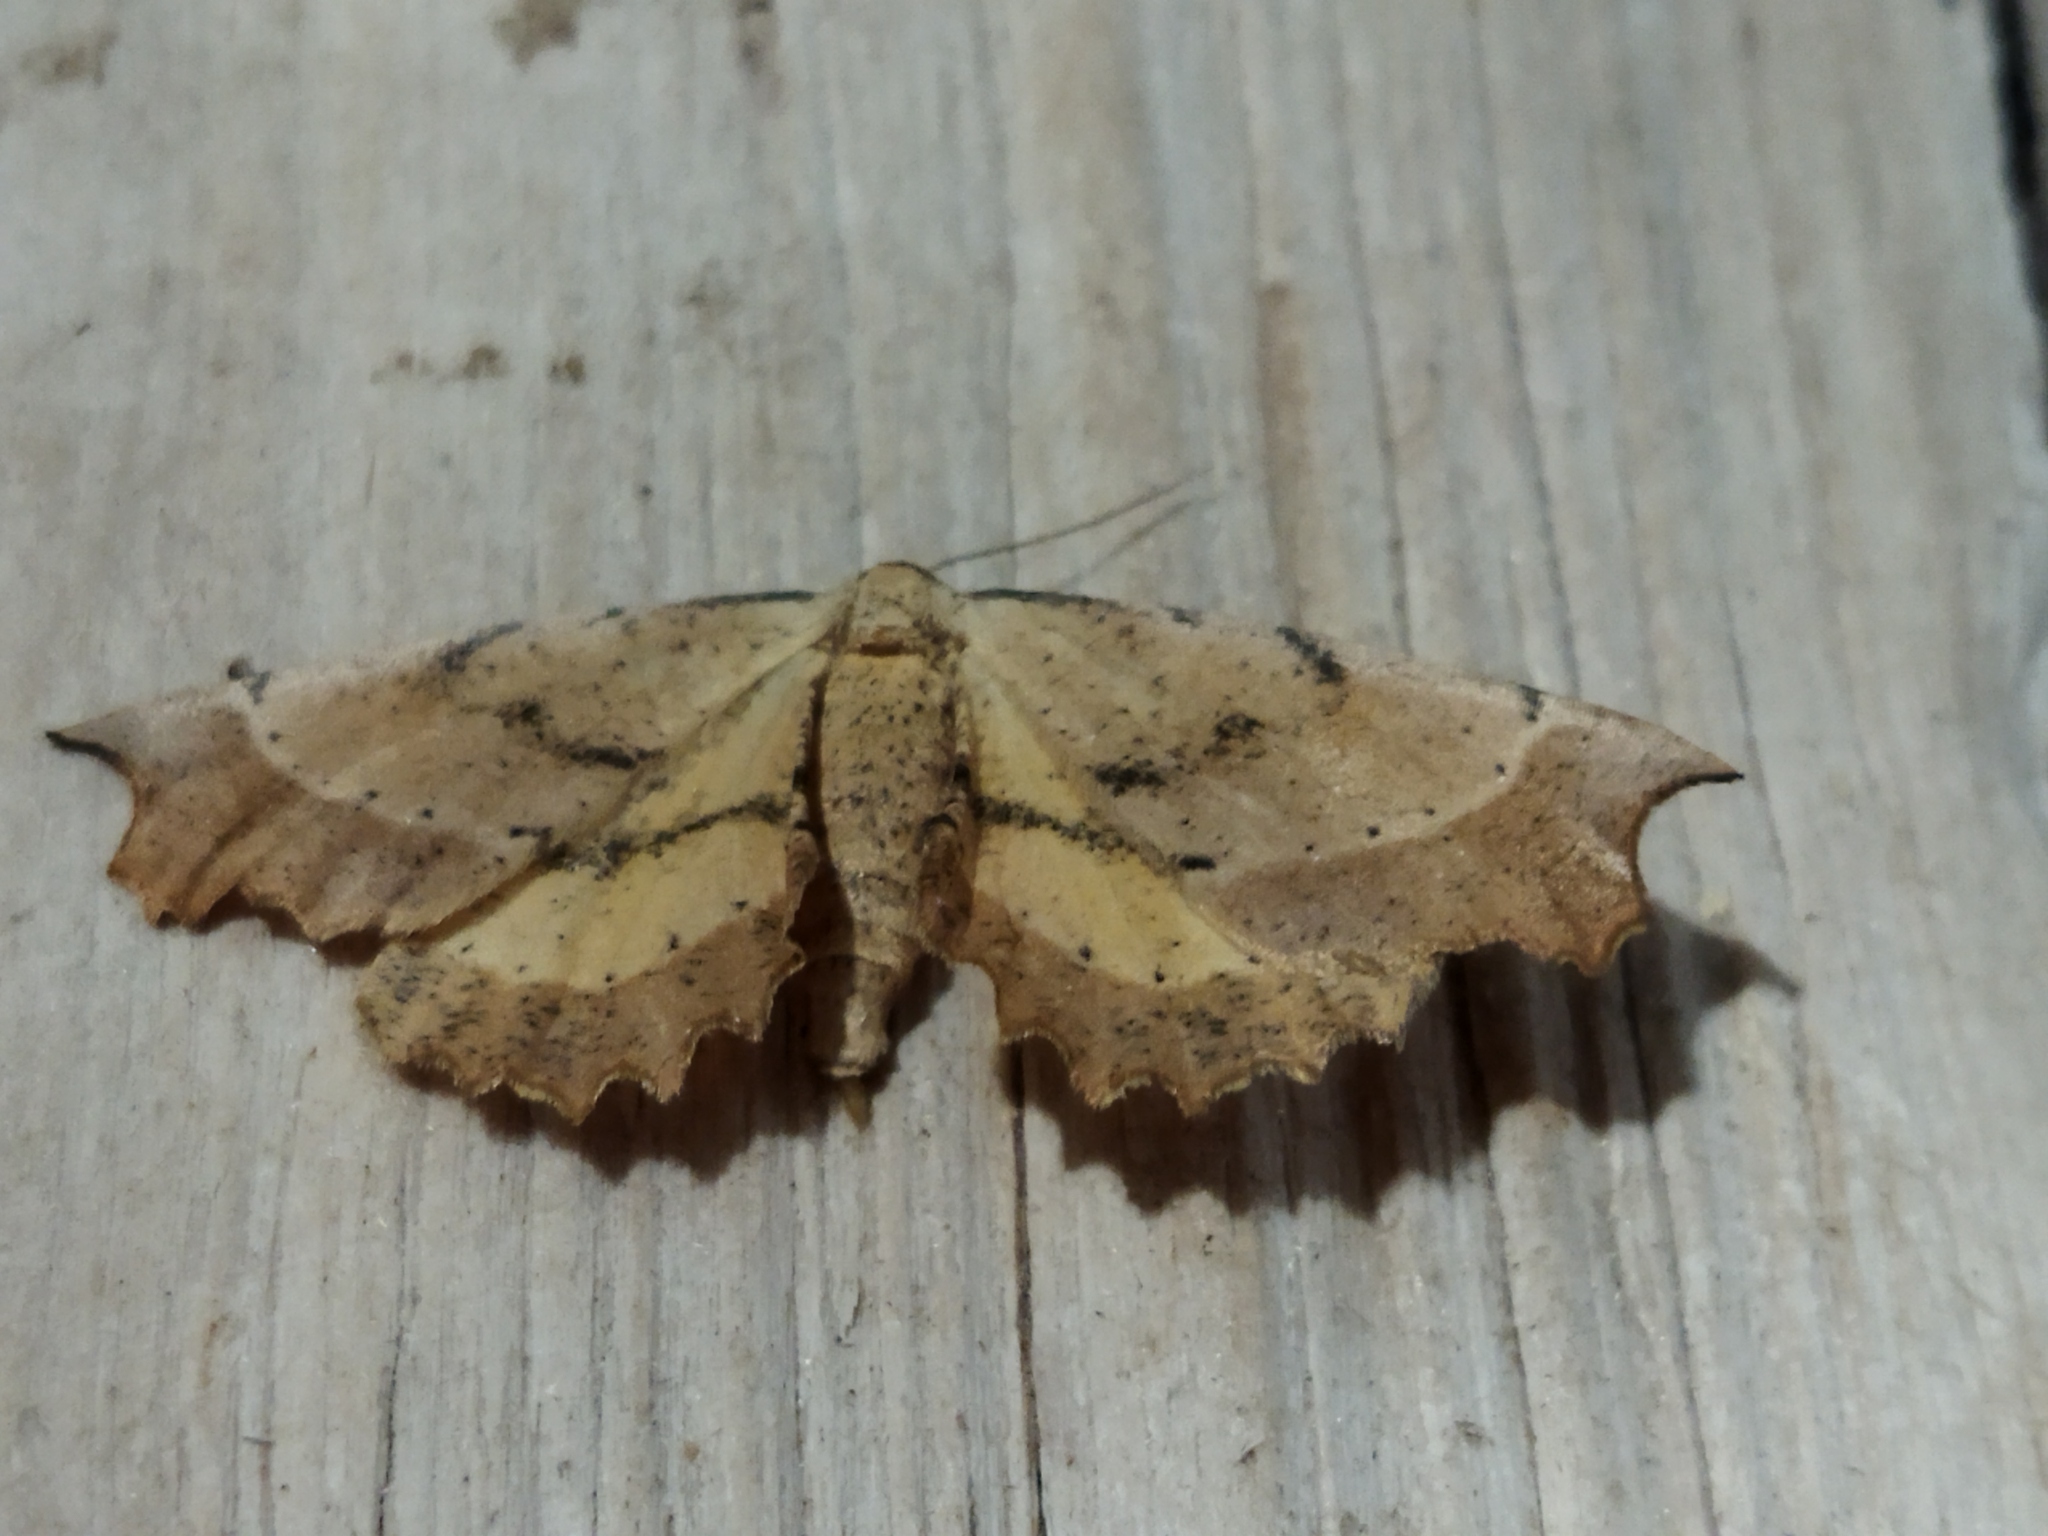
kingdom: Animalia
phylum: Arthropoda
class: Insecta
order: Lepidoptera
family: Geometridae
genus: Artiora
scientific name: Artiora evonymaria
